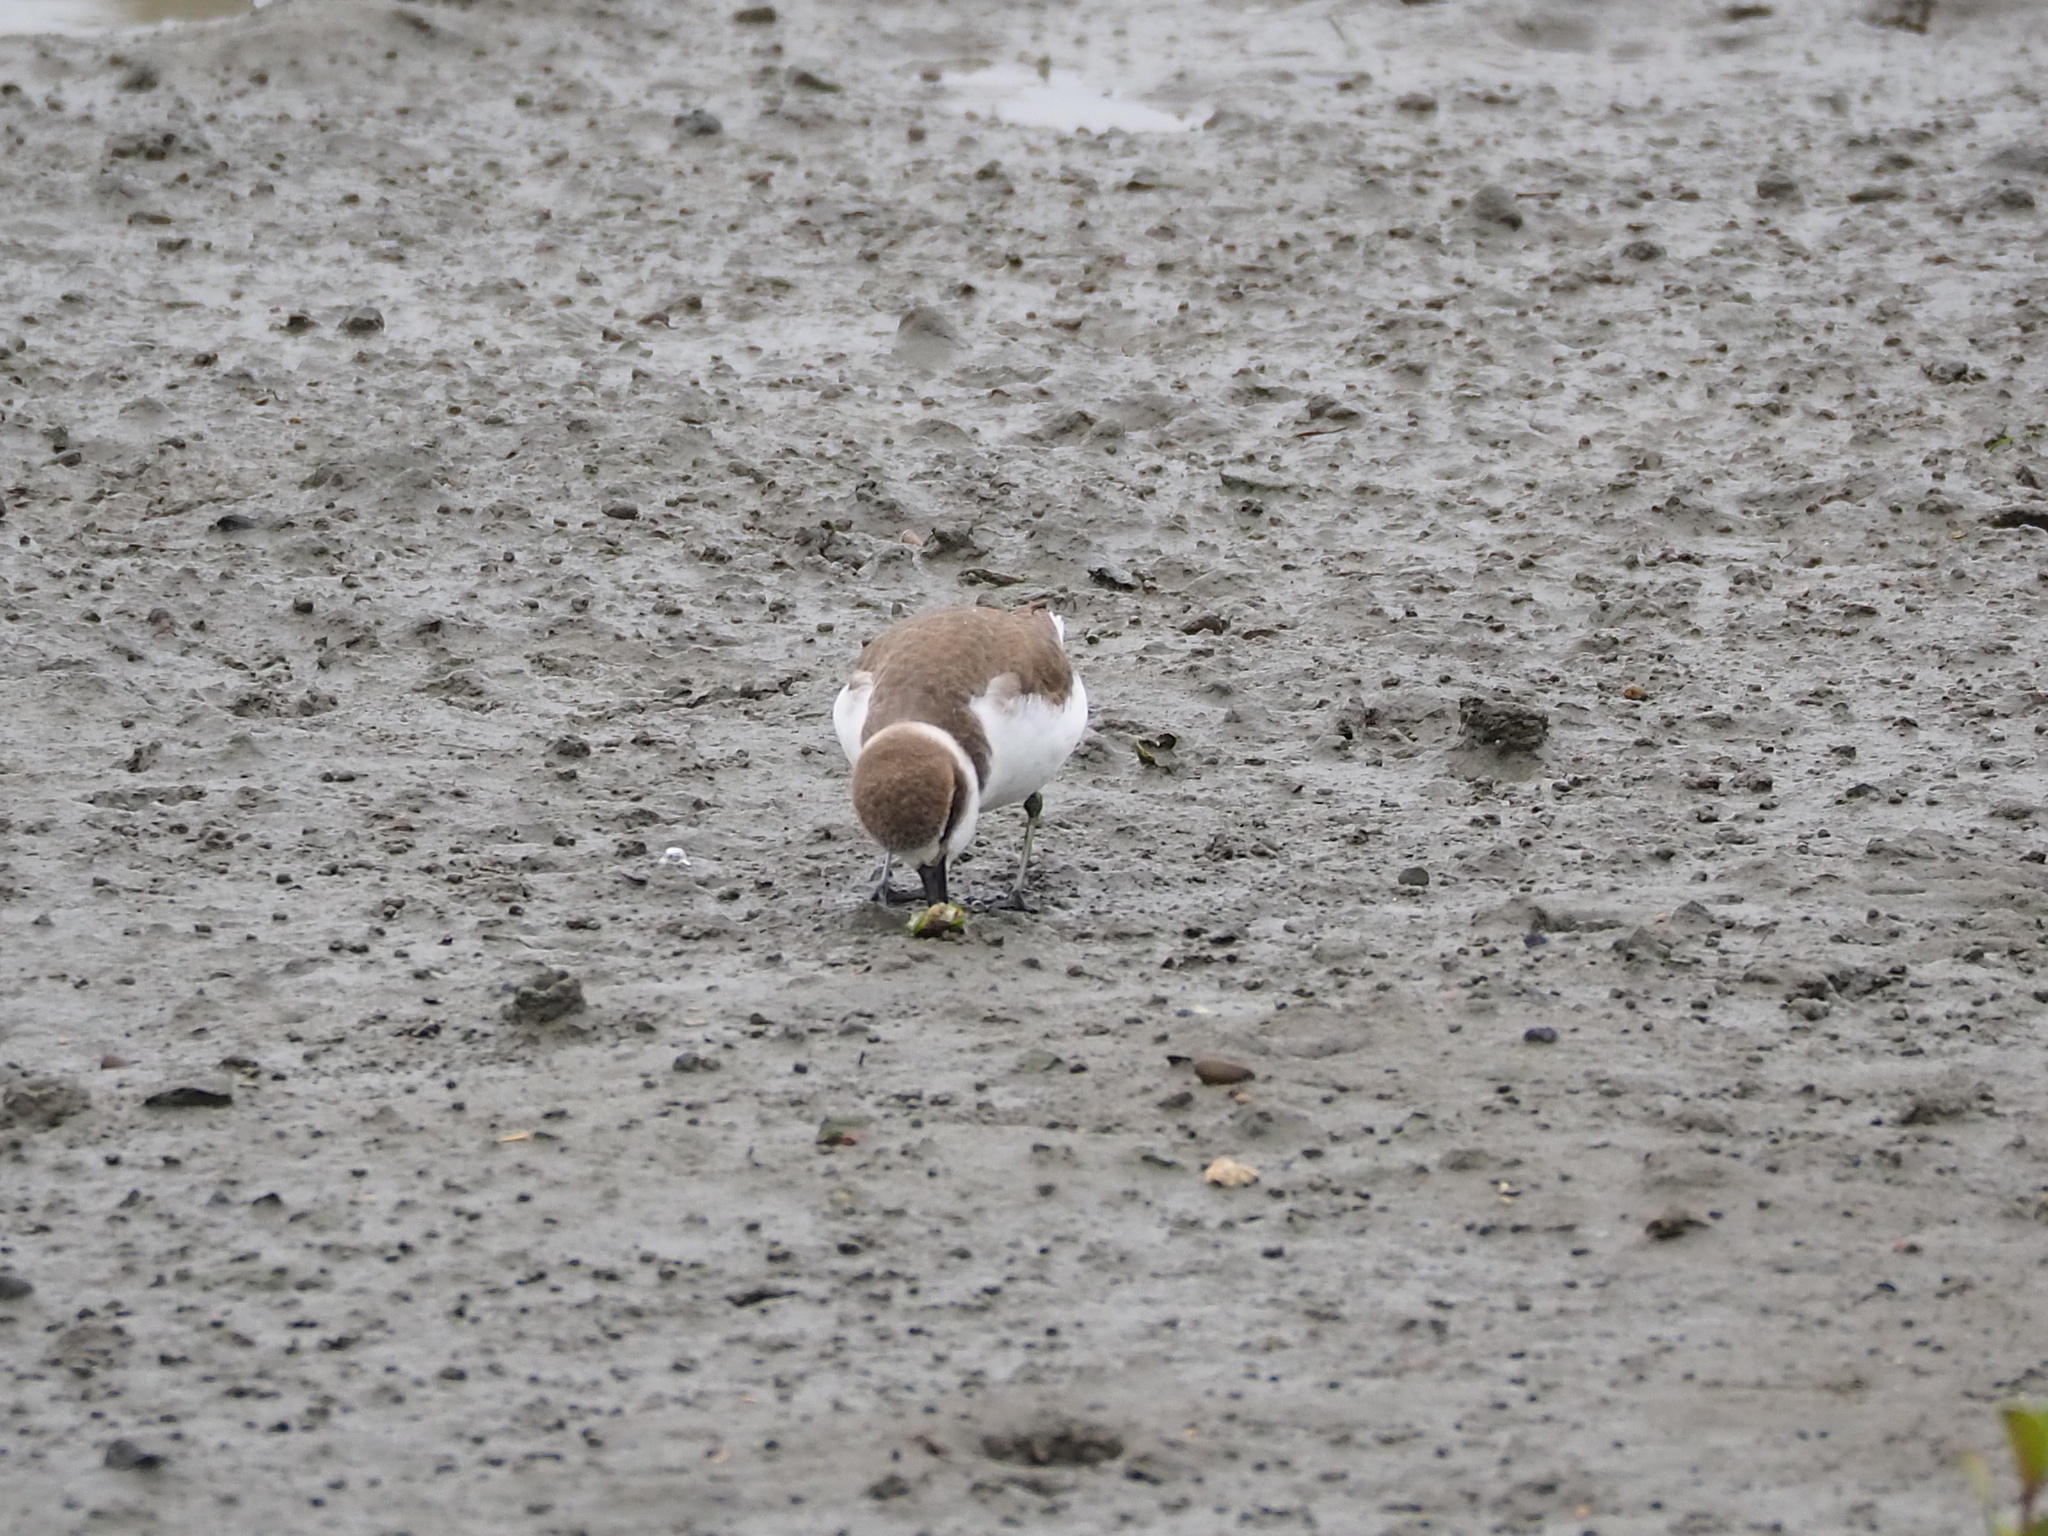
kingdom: Animalia
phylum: Chordata
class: Aves
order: Charadriiformes
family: Charadriidae
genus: Charadrius
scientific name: Charadrius alexandrinus
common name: Kentish plover
